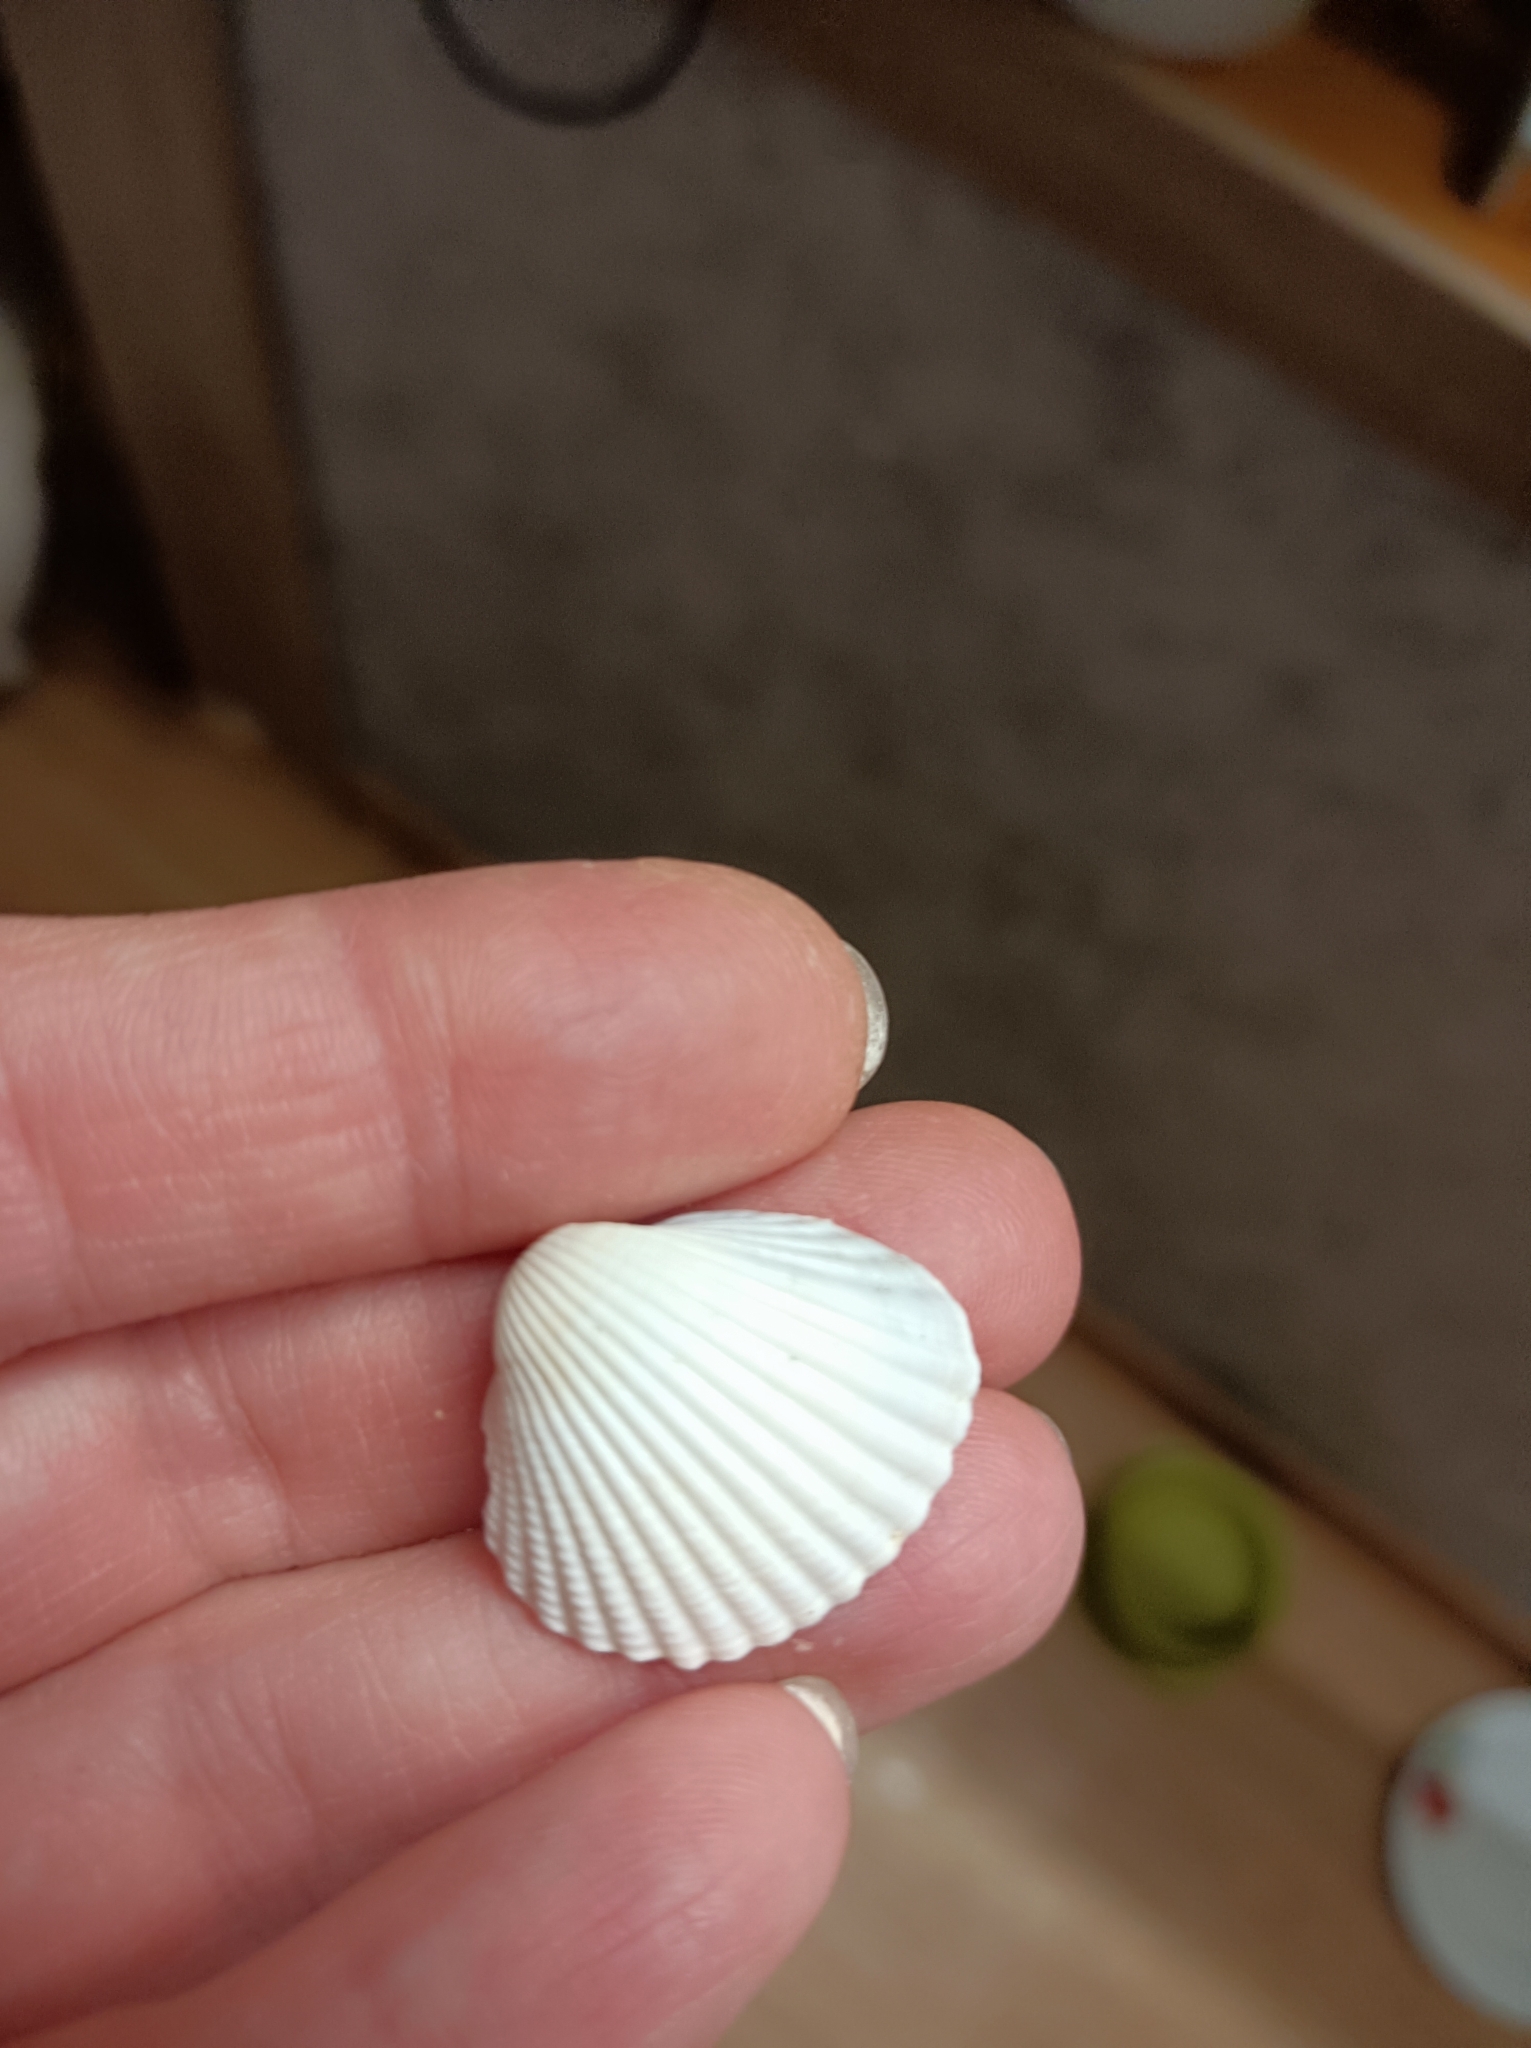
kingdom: Animalia
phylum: Mollusca
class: Bivalvia
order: Cardiida
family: Cardiidae
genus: Cerastoderma
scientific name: Cerastoderma glaucum
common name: Lagoon cockle
